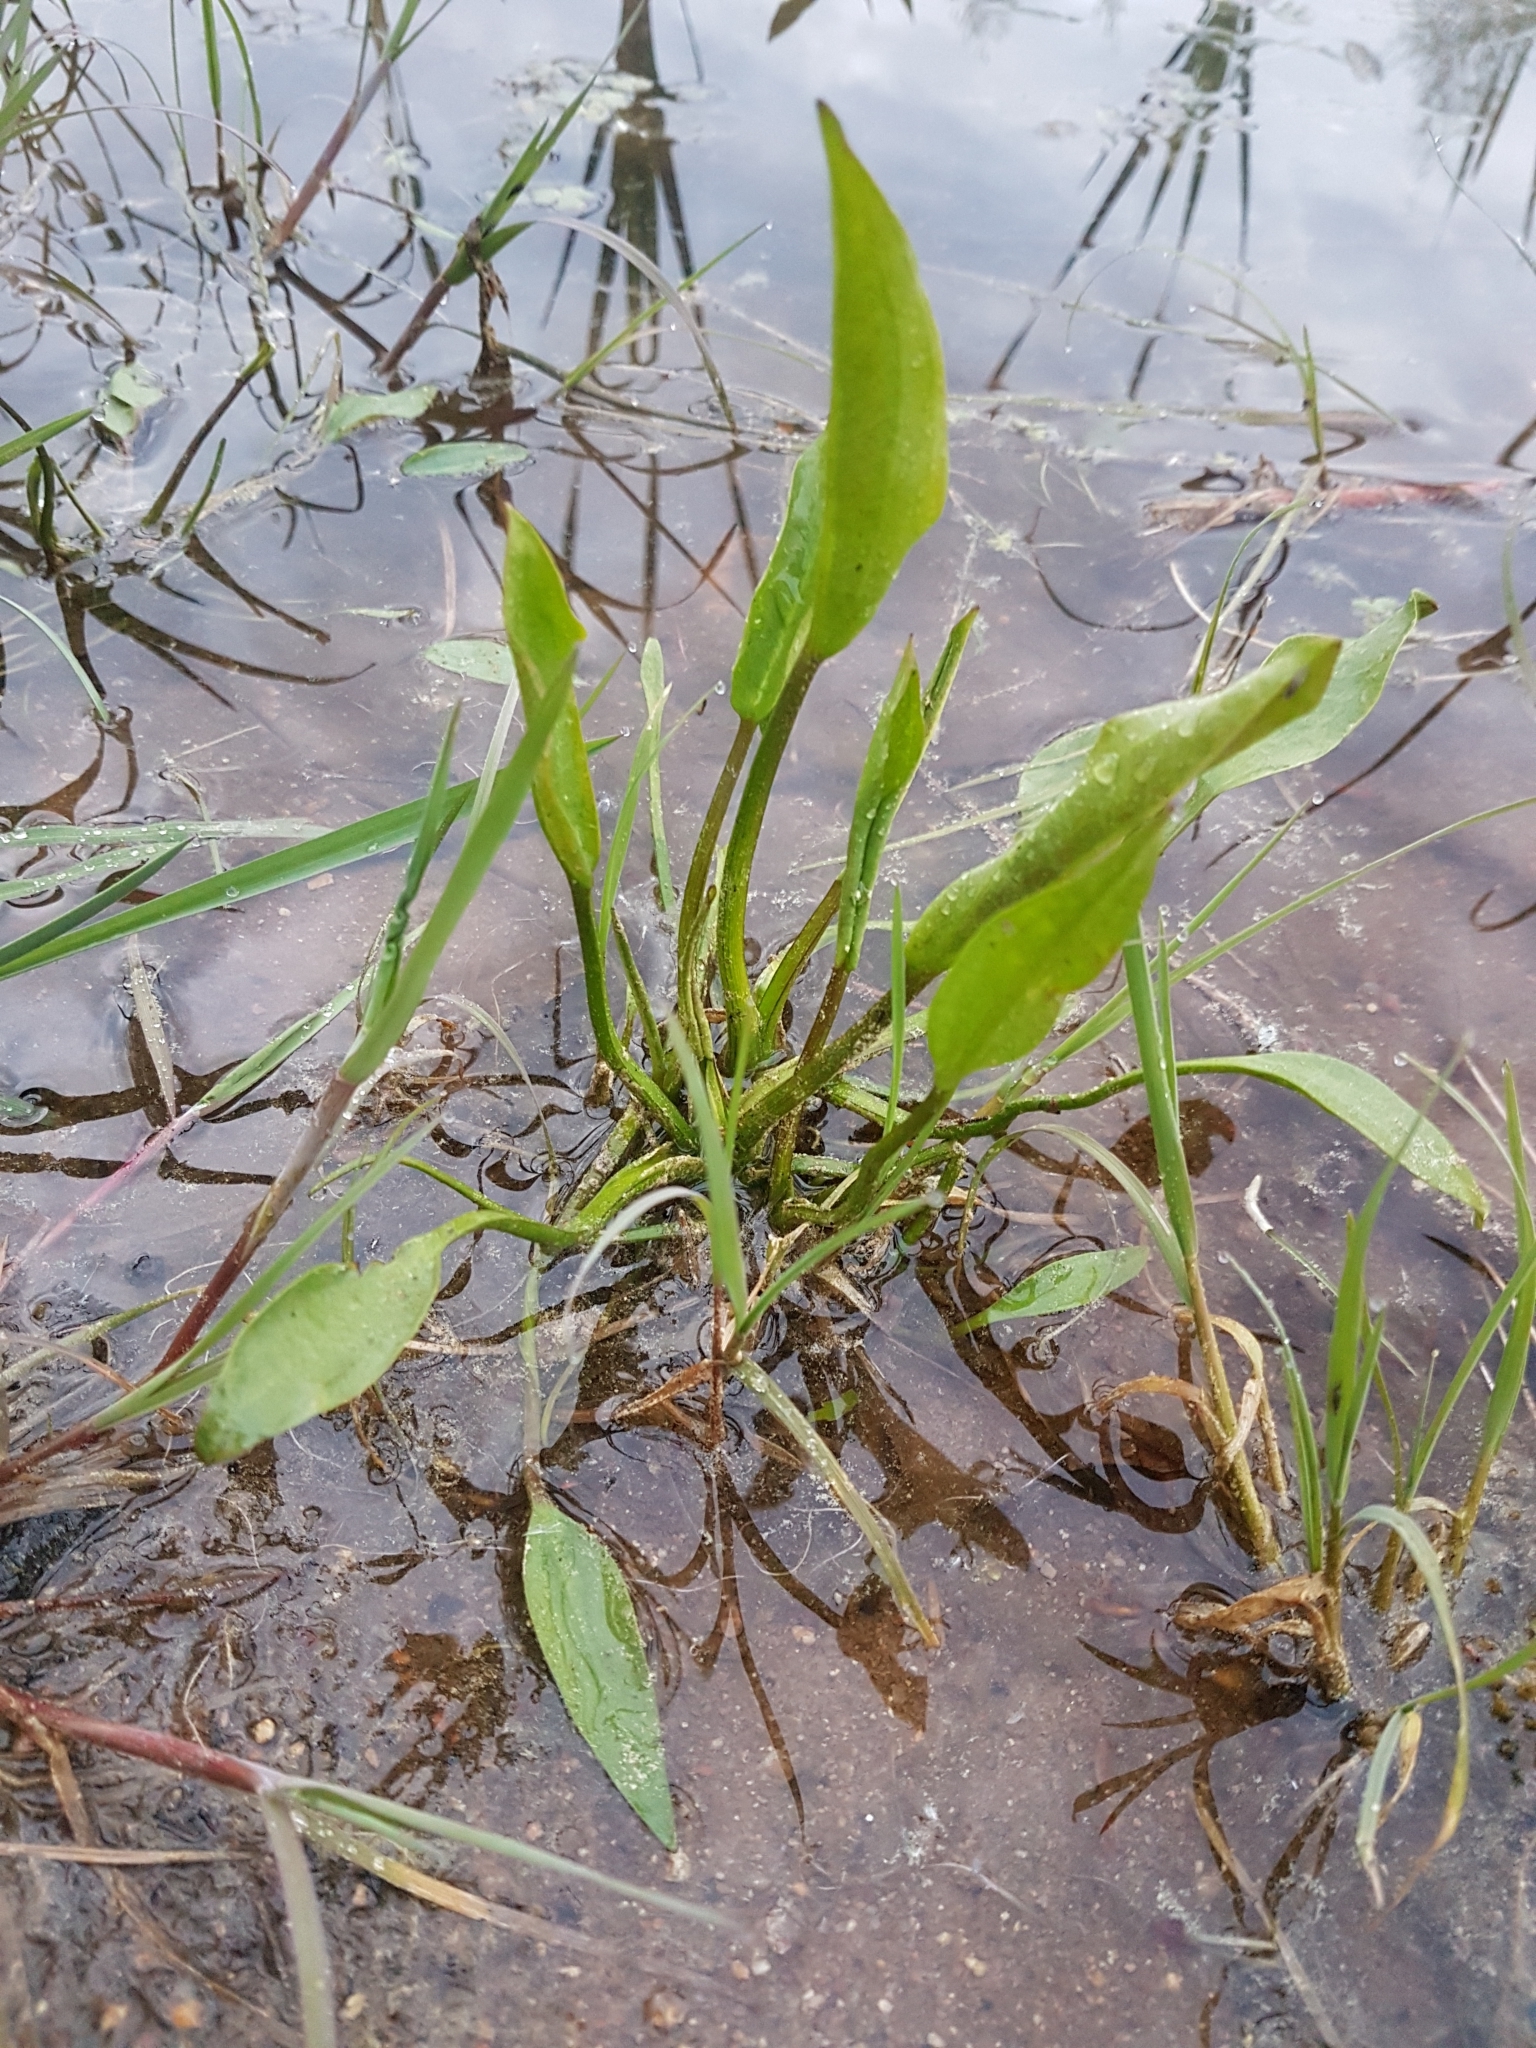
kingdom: Plantae
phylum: Tracheophyta
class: Liliopsida
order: Alismatales
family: Alismataceae
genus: Alisma
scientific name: Alisma plantago-aquatica
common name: Water-plantain
